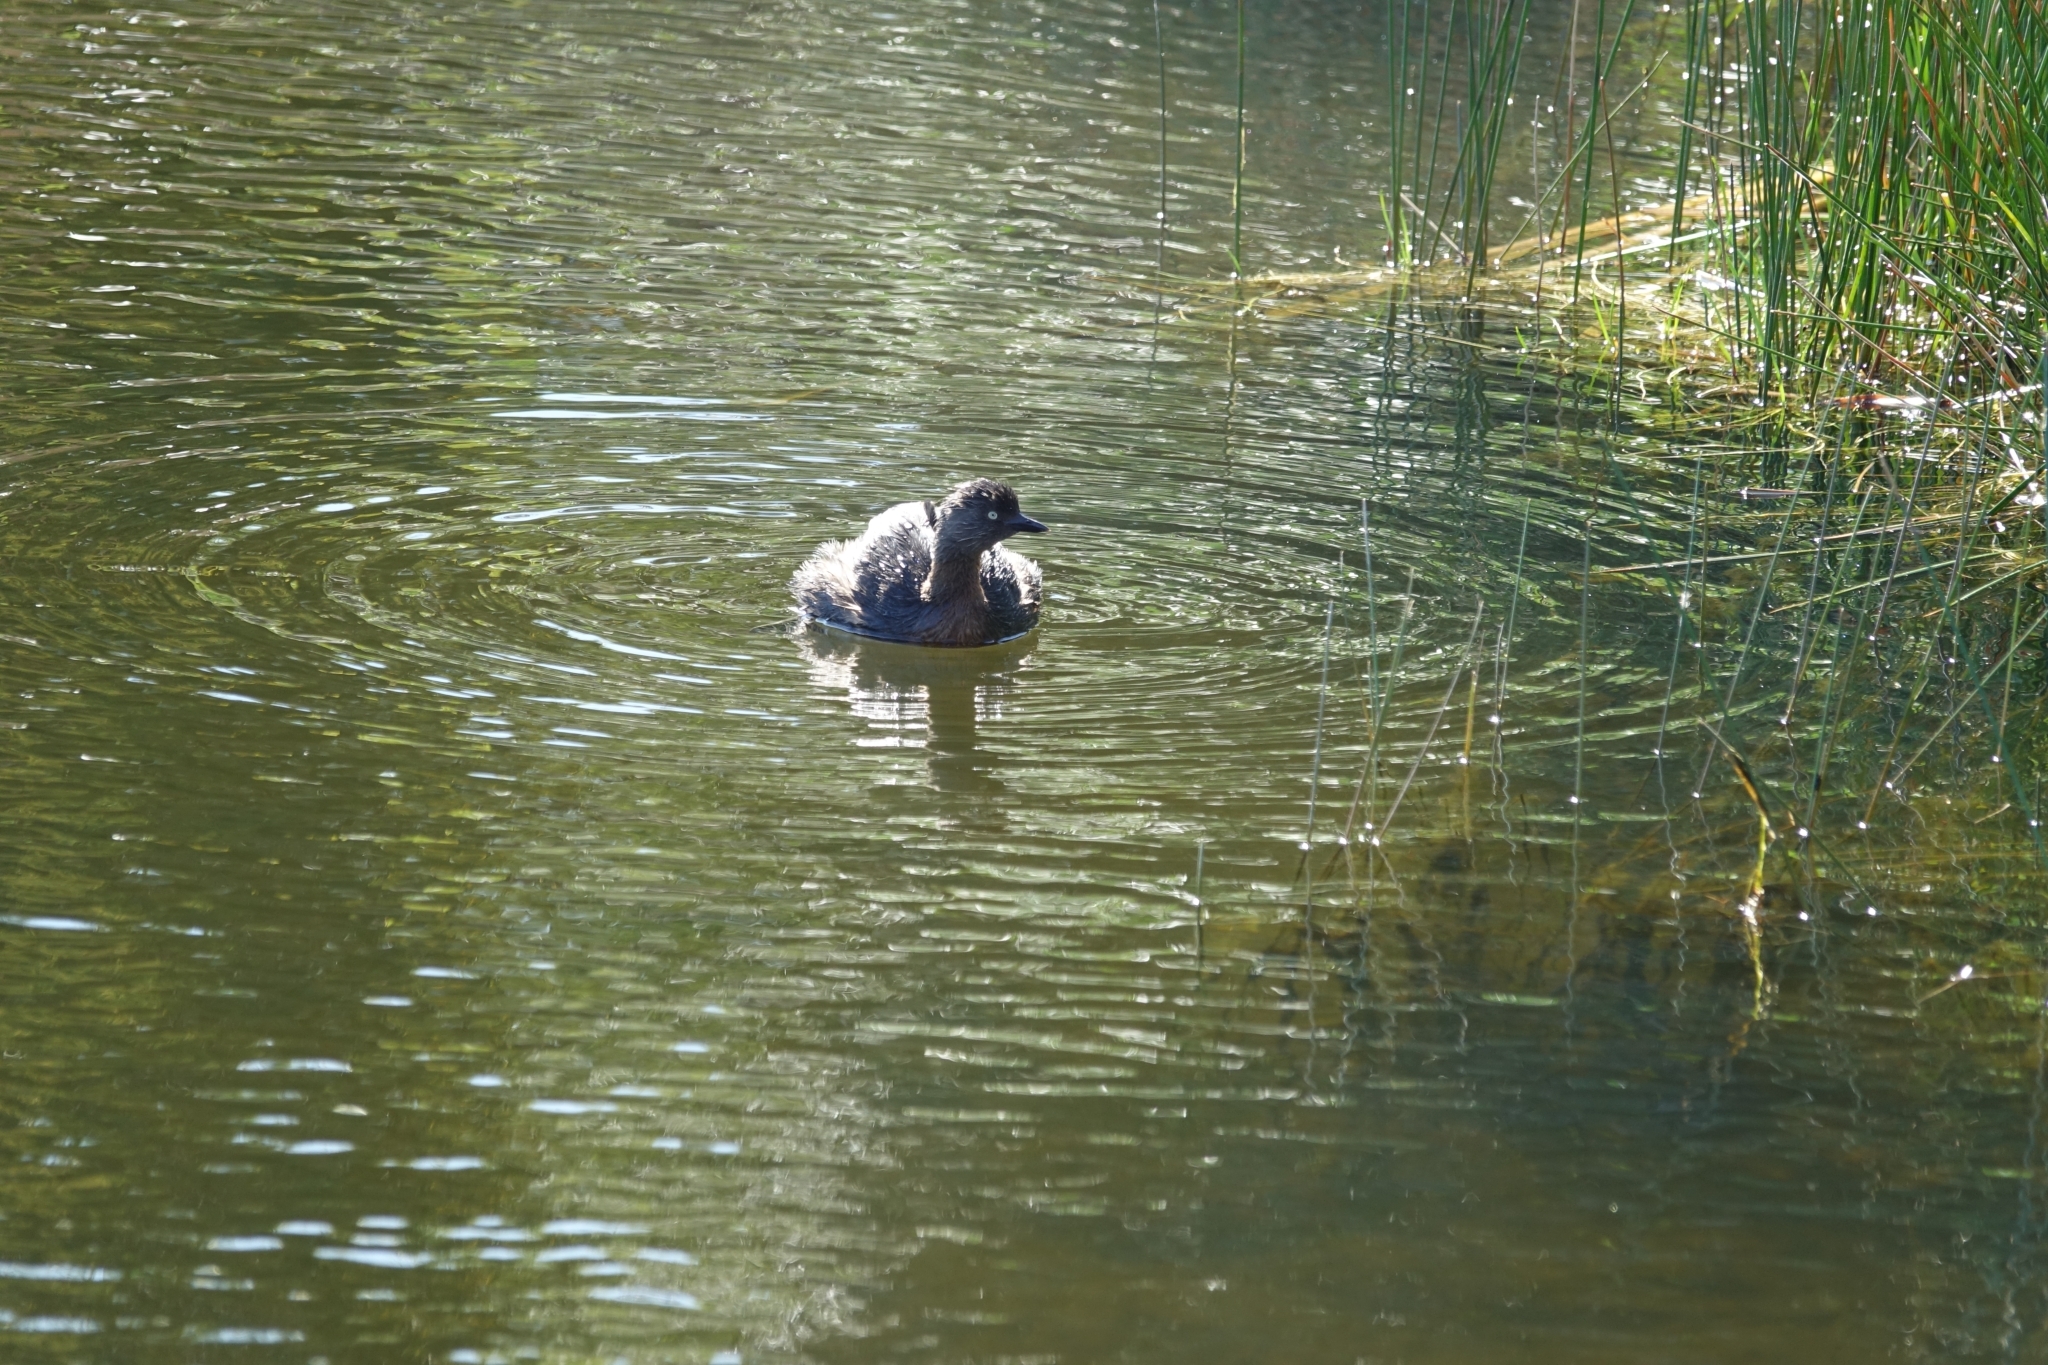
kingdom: Animalia
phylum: Chordata
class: Aves
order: Podicipediformes
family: Podicipedidae
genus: Poliocephalus
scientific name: Poliocephalus rufopectus
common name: New zealand grebe
